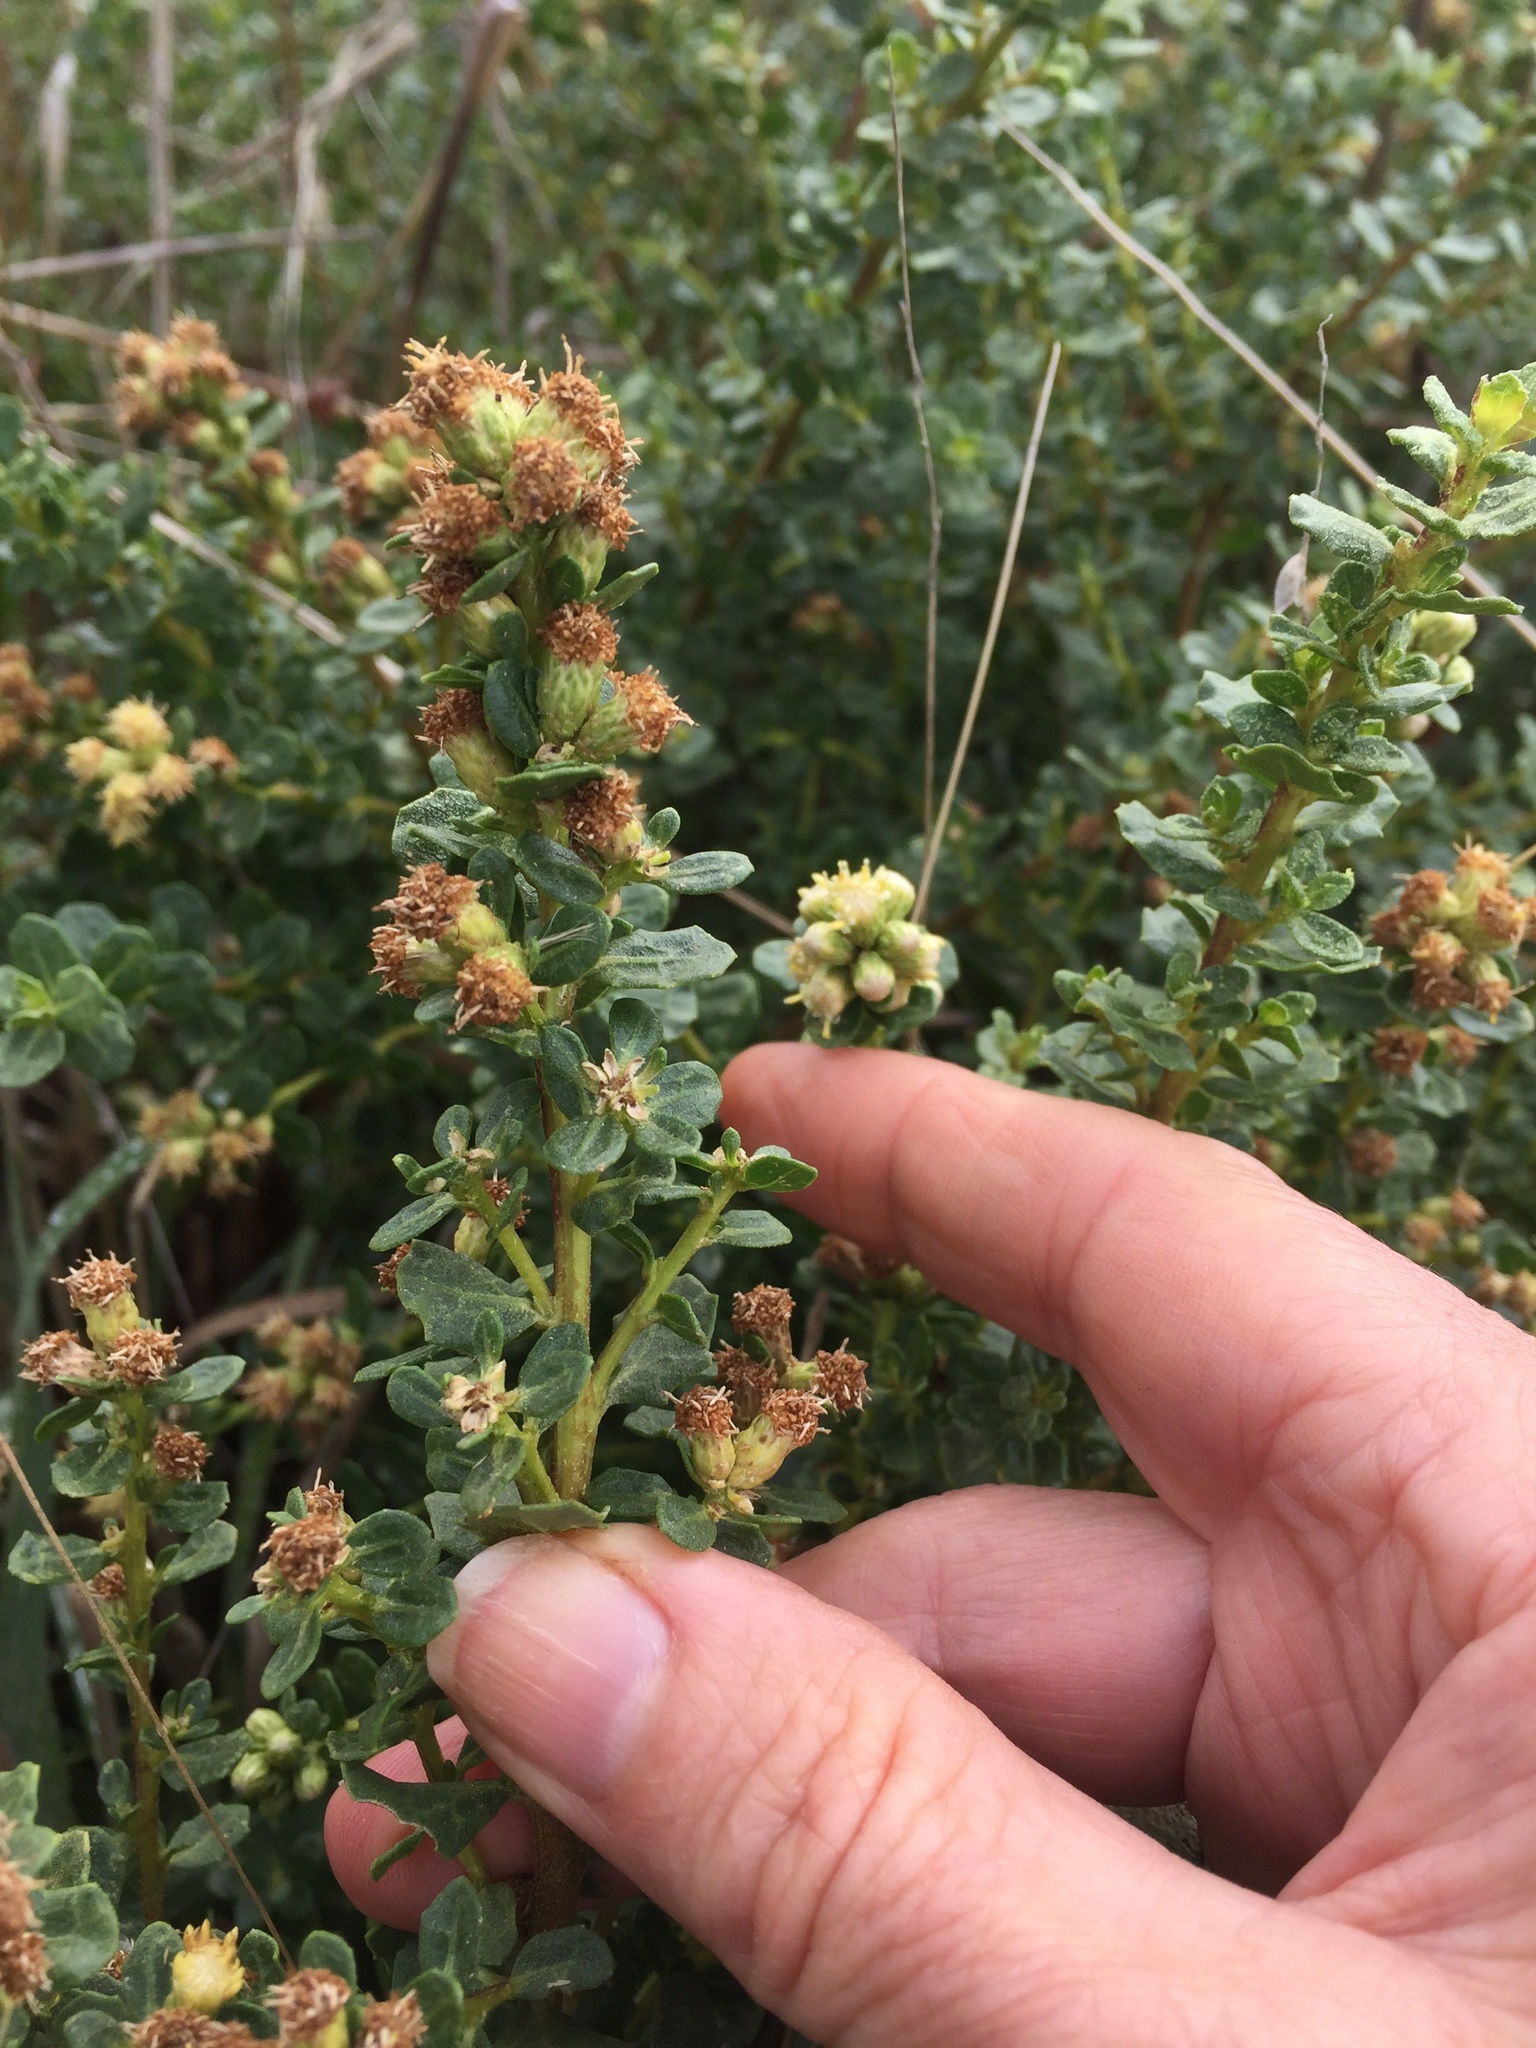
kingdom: Plantae
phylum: Tracheophyta
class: Magnoliopsida
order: Asterales
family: Asteraceae
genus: Baccharis
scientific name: Baccharis pilularis
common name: Coyotebrush
